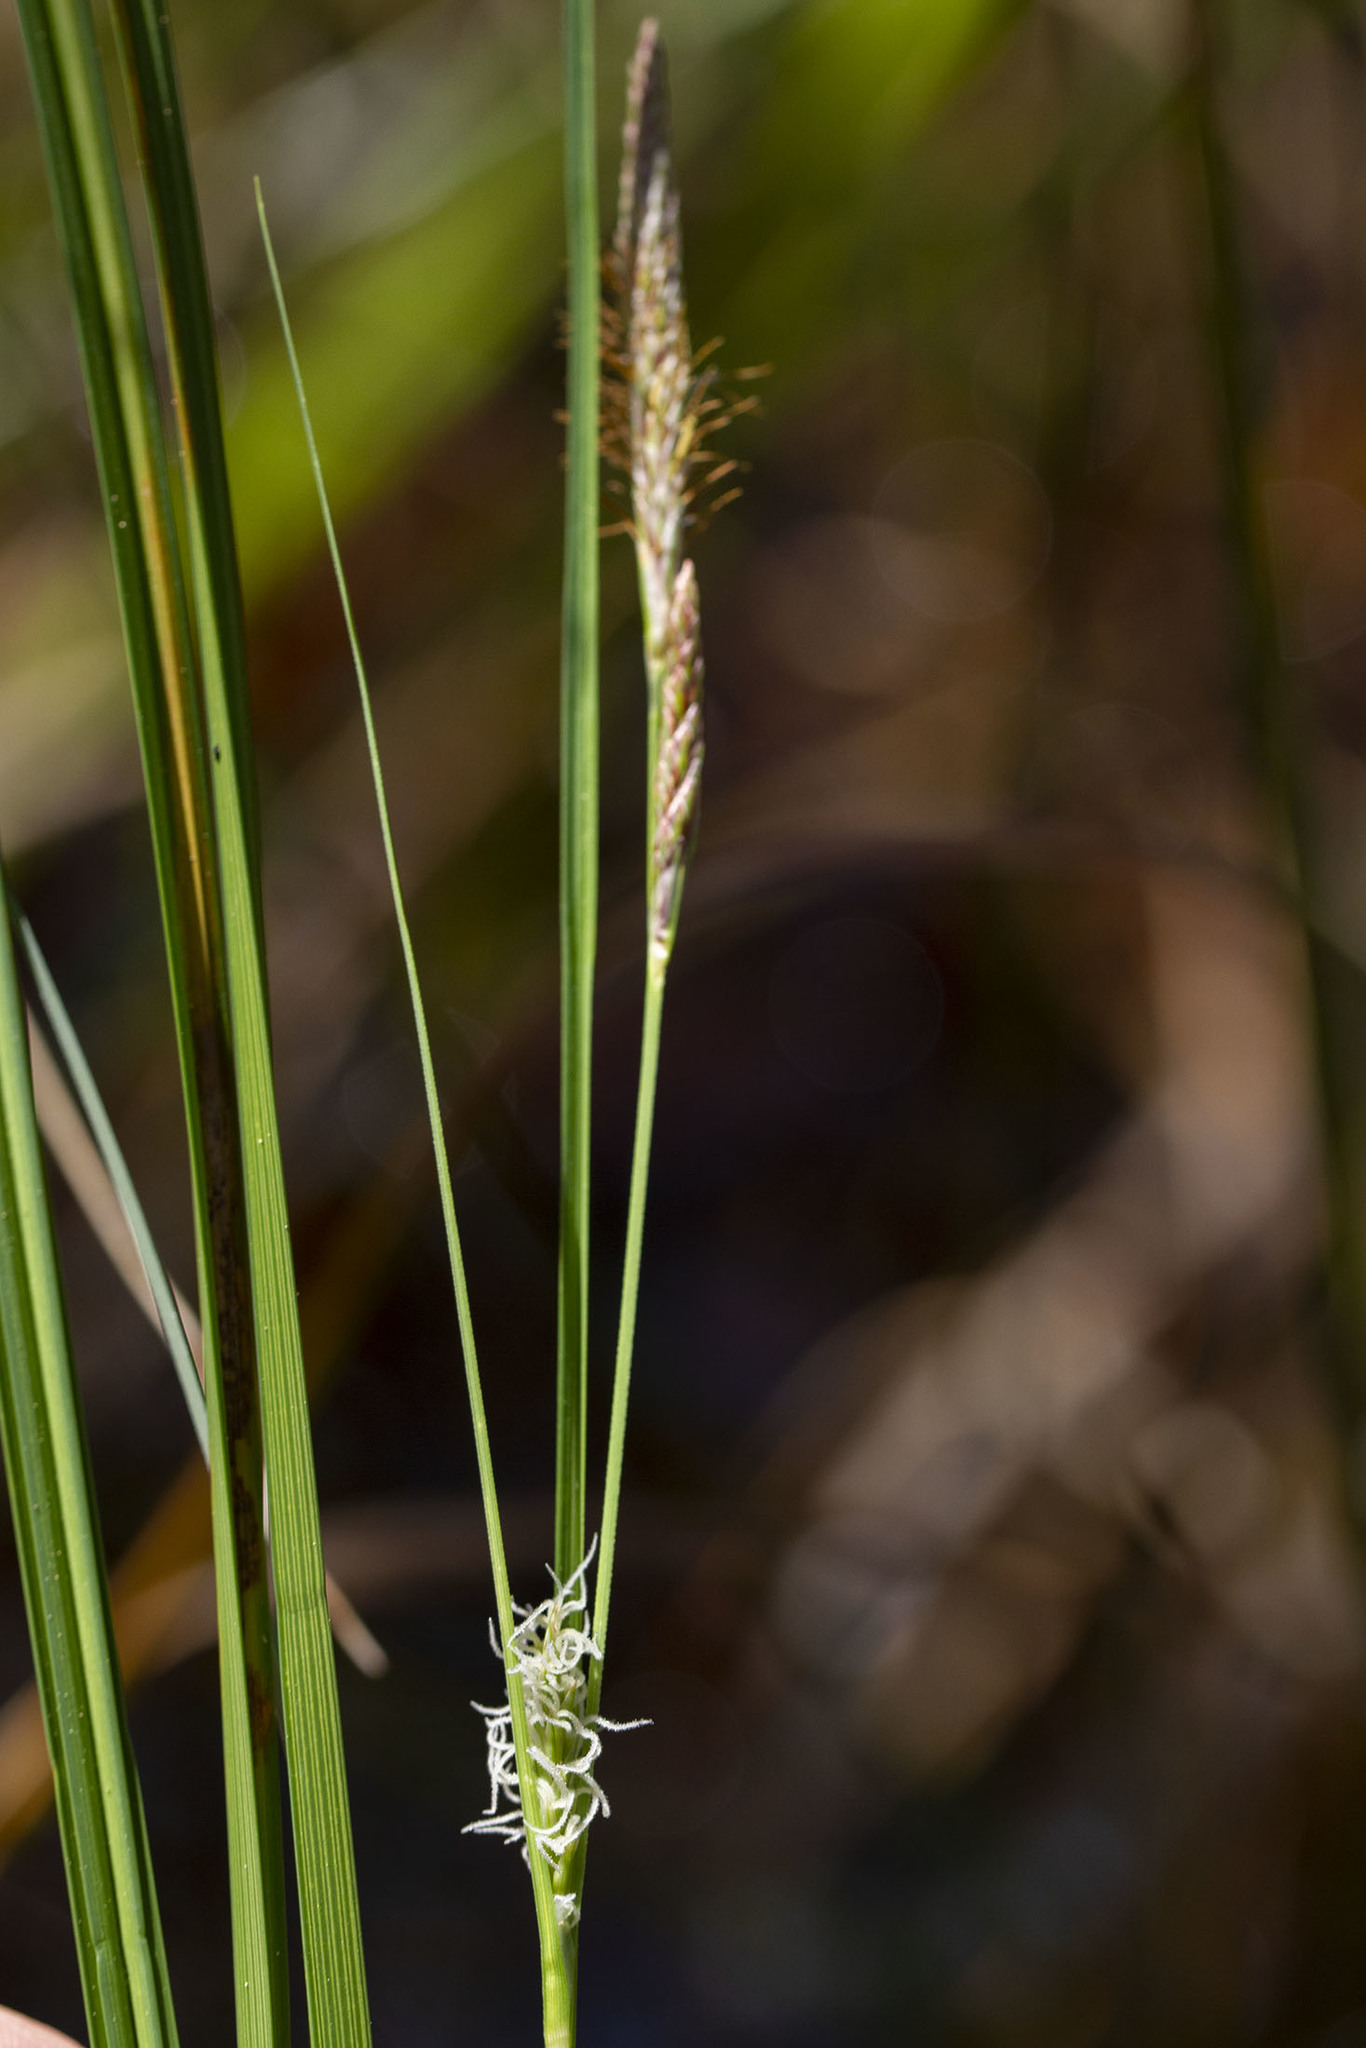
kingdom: Plantae
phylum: Tracheophyta
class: Liliopsida
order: Poales
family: Cyperaceae
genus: Carex
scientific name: Carex striata
